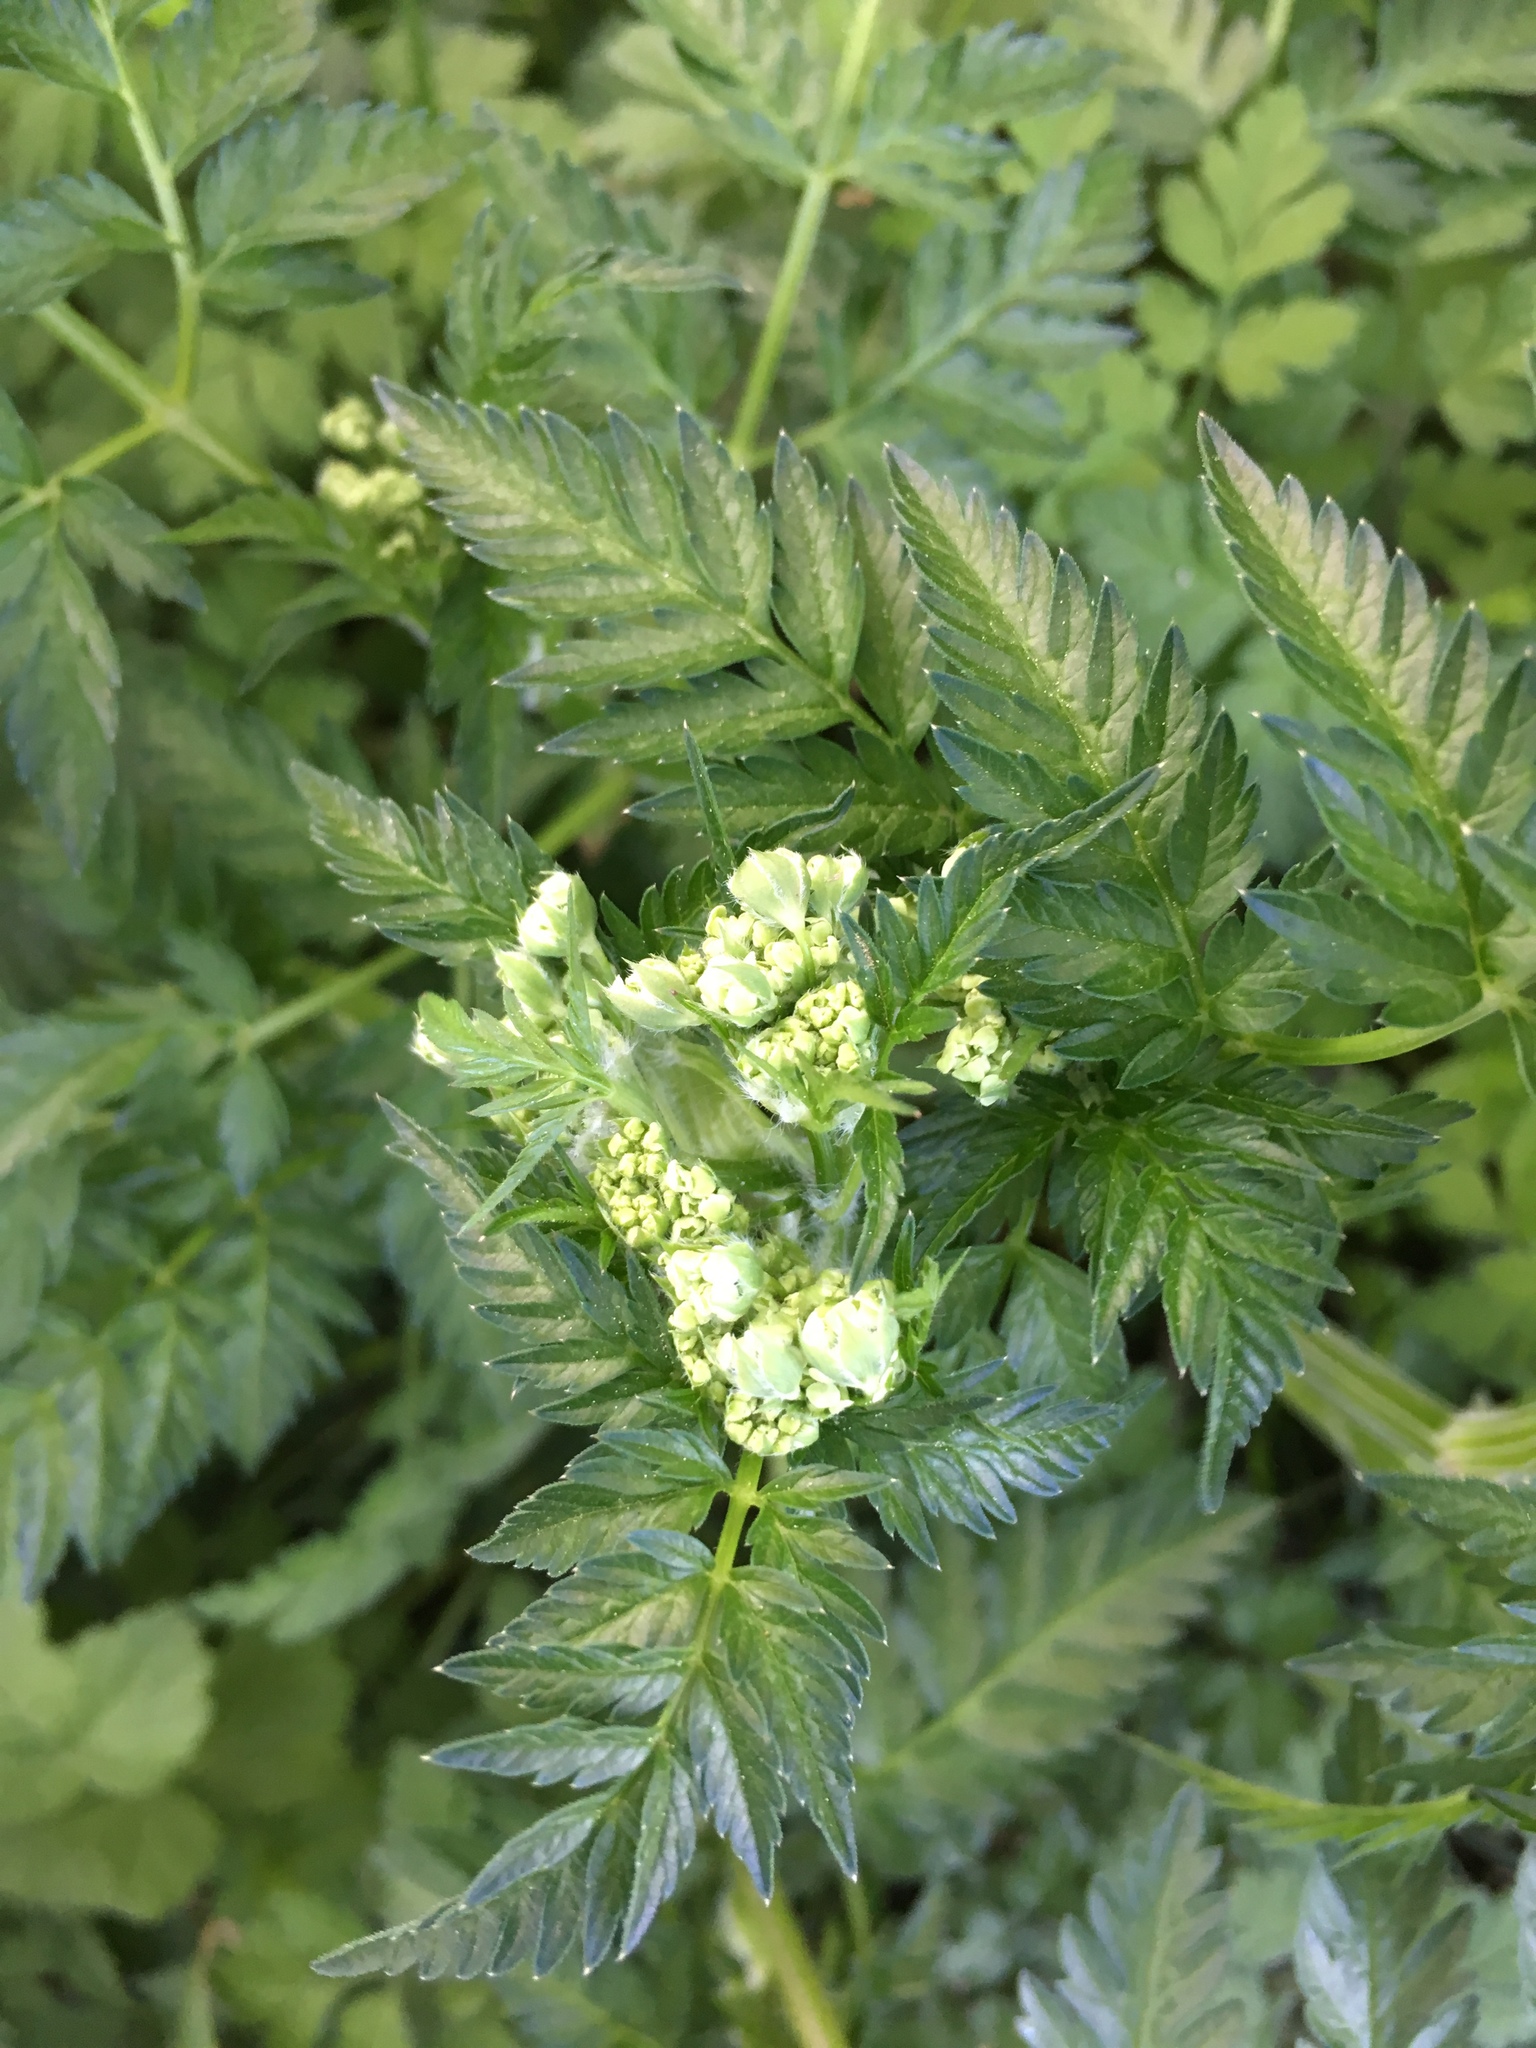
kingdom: Plantae
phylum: Tracheophyta
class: Magnoliopsida
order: Apiales
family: Apiaceae
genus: Anthriscus
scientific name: Anthriscus sylvestris
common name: Cow parsley
